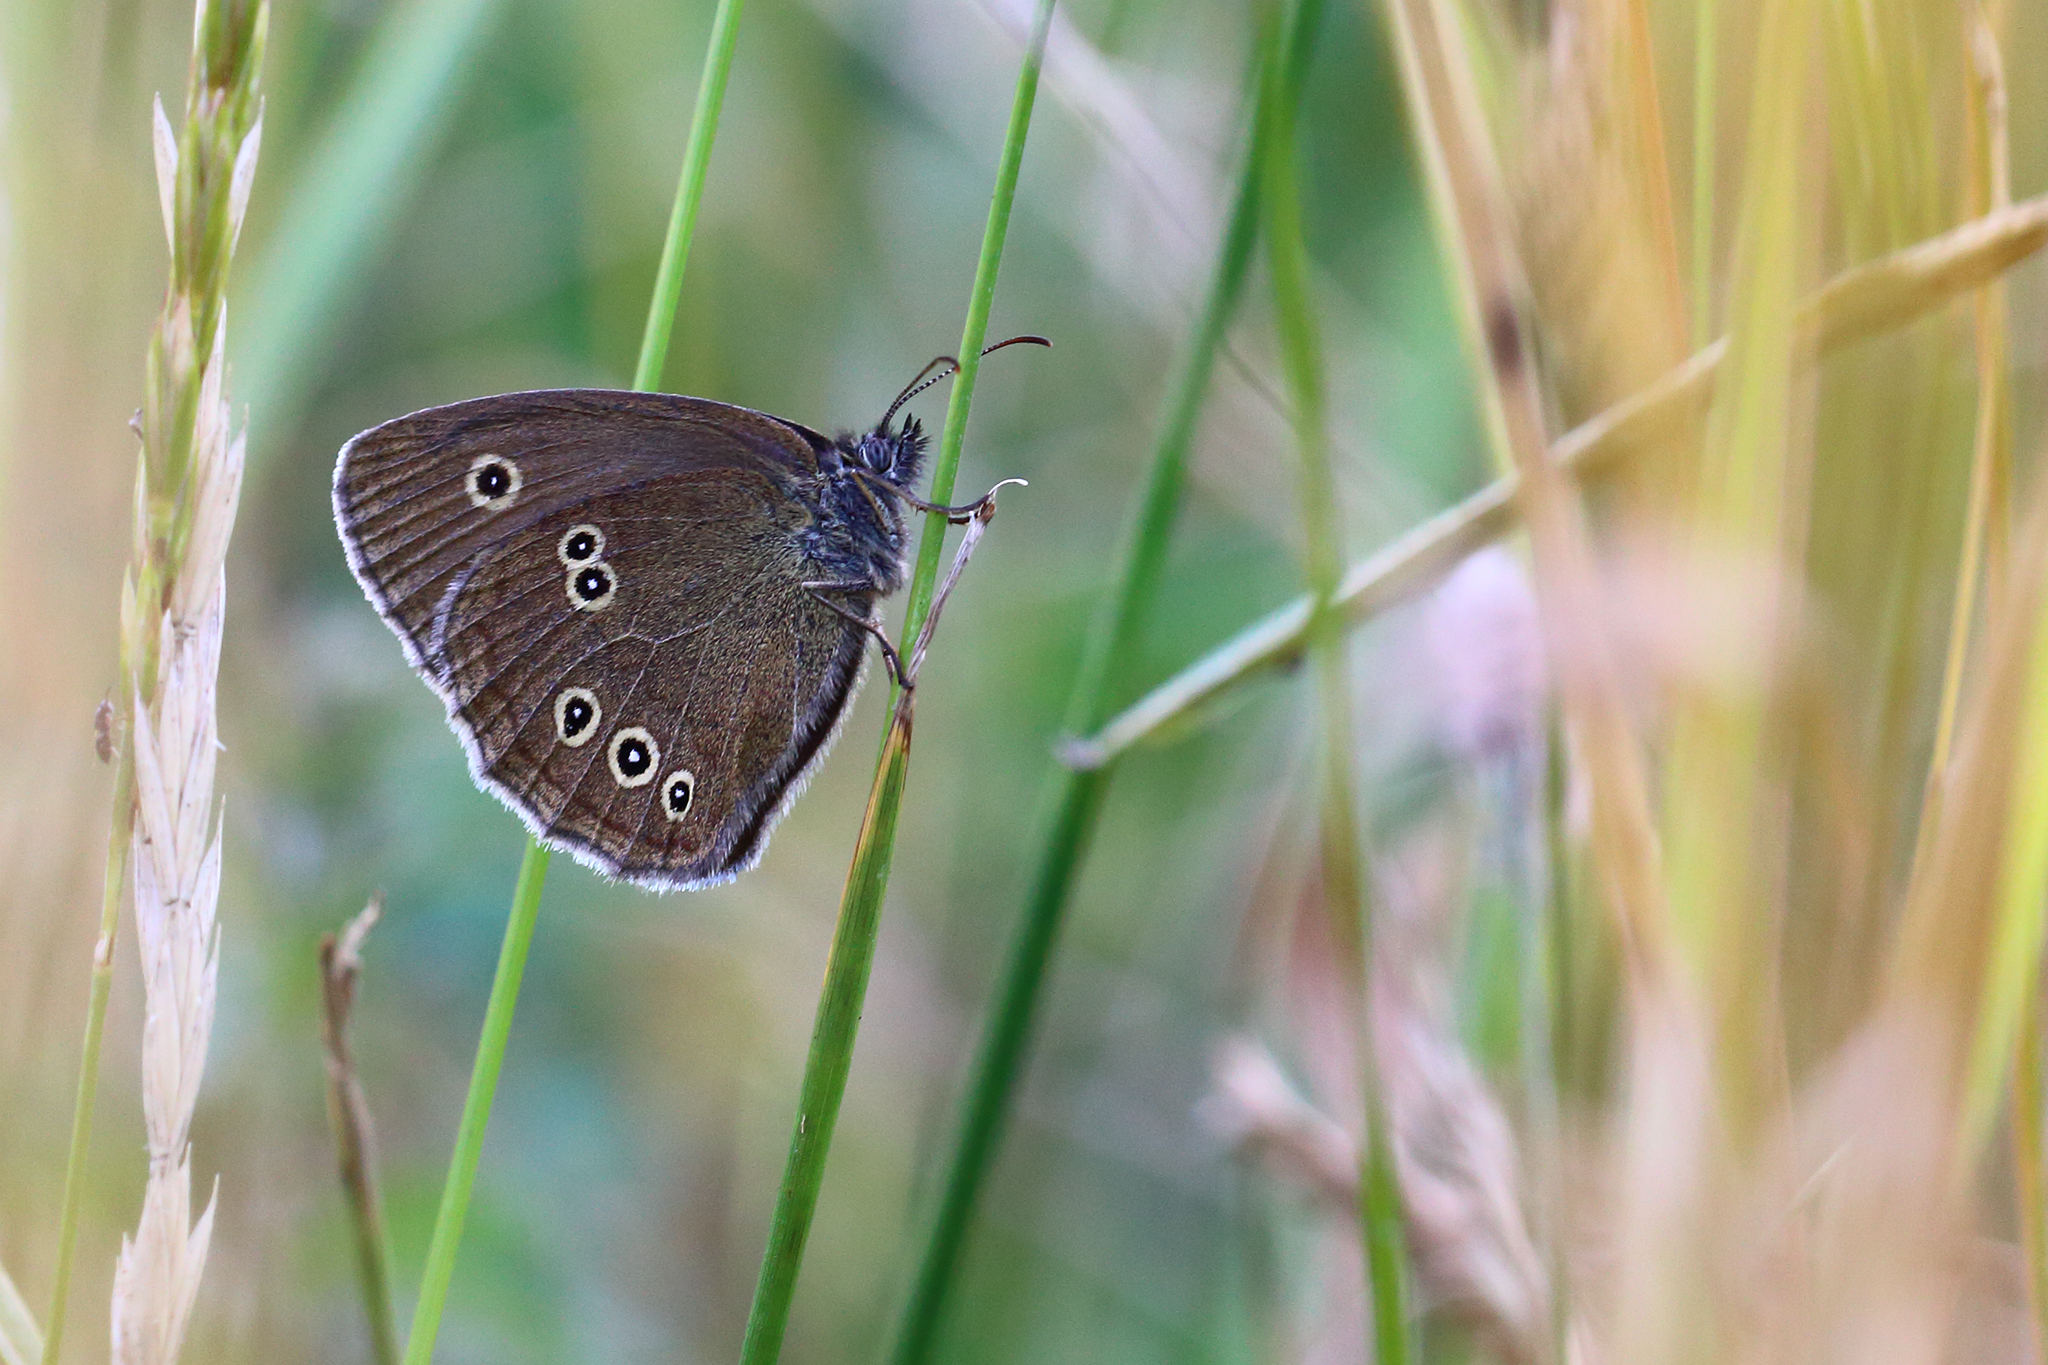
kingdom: Animalia
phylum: Arthropoda
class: Insecta
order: Lepidoptera
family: Nymphalidae
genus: Aphantopus
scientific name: Aphantopus hyperantus
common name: Ringlet
